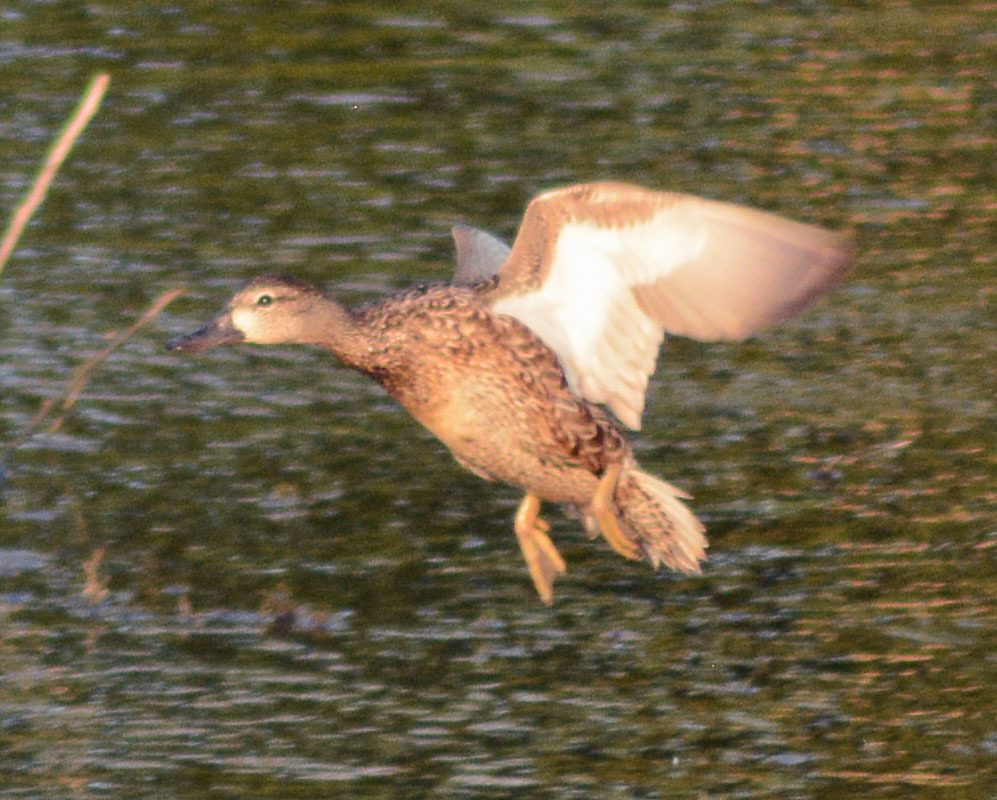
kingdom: Animalia
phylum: Chordata
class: Aves
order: Anseriformes
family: Anatidae
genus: Spatula
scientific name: Spatula discors
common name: Blue-winged teal
